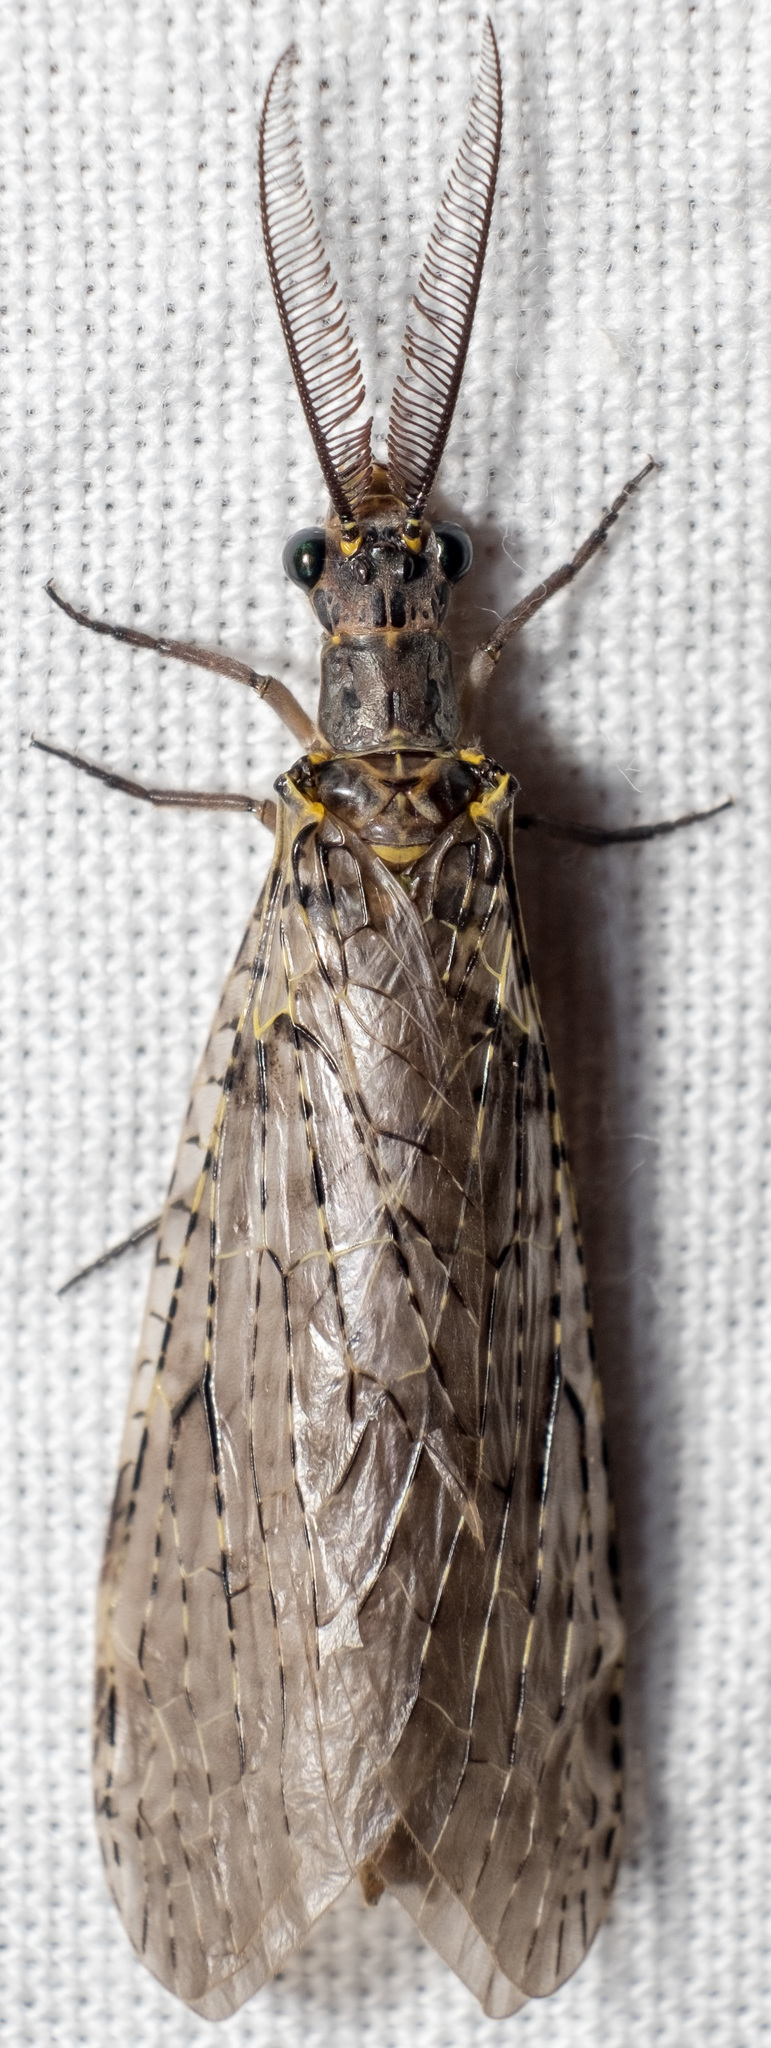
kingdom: Animalia
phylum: Arthropoda
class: Insecta
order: Megaloptera
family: Corydalidae
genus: Chauliodes
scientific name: Chauliodes rastricornis
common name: Spring fishfly
